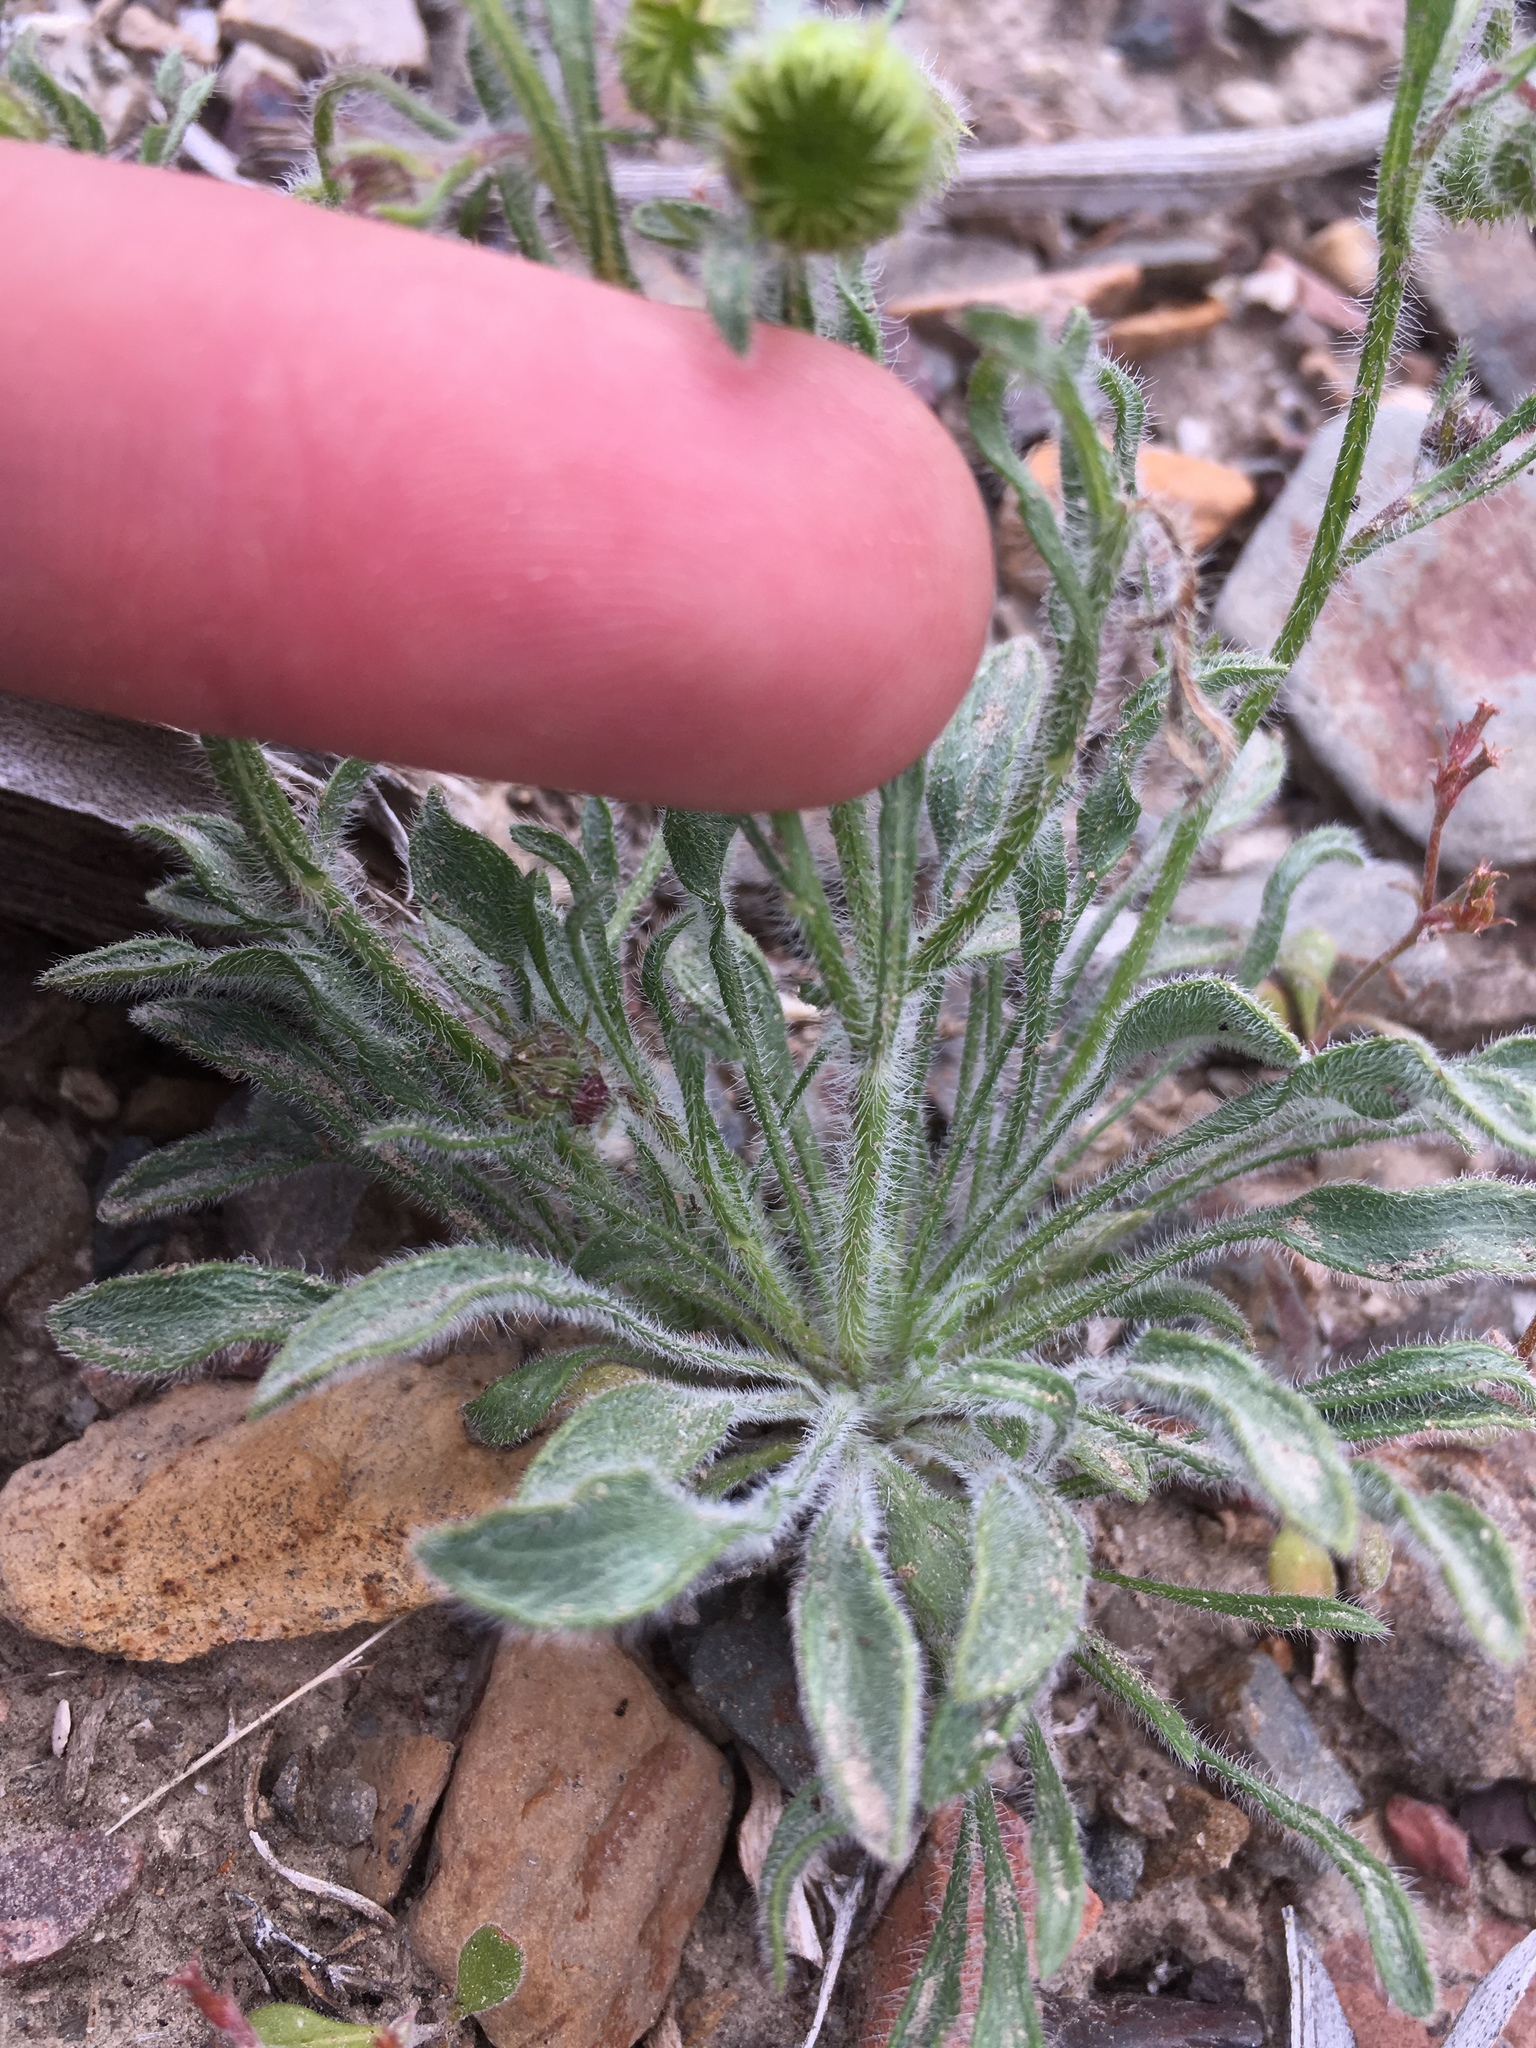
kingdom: Plantae
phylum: Tracheophyta
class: Magnoliopsida
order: Asterales
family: Asteraceae
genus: Erigeron
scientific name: Erigeron aphanactis
